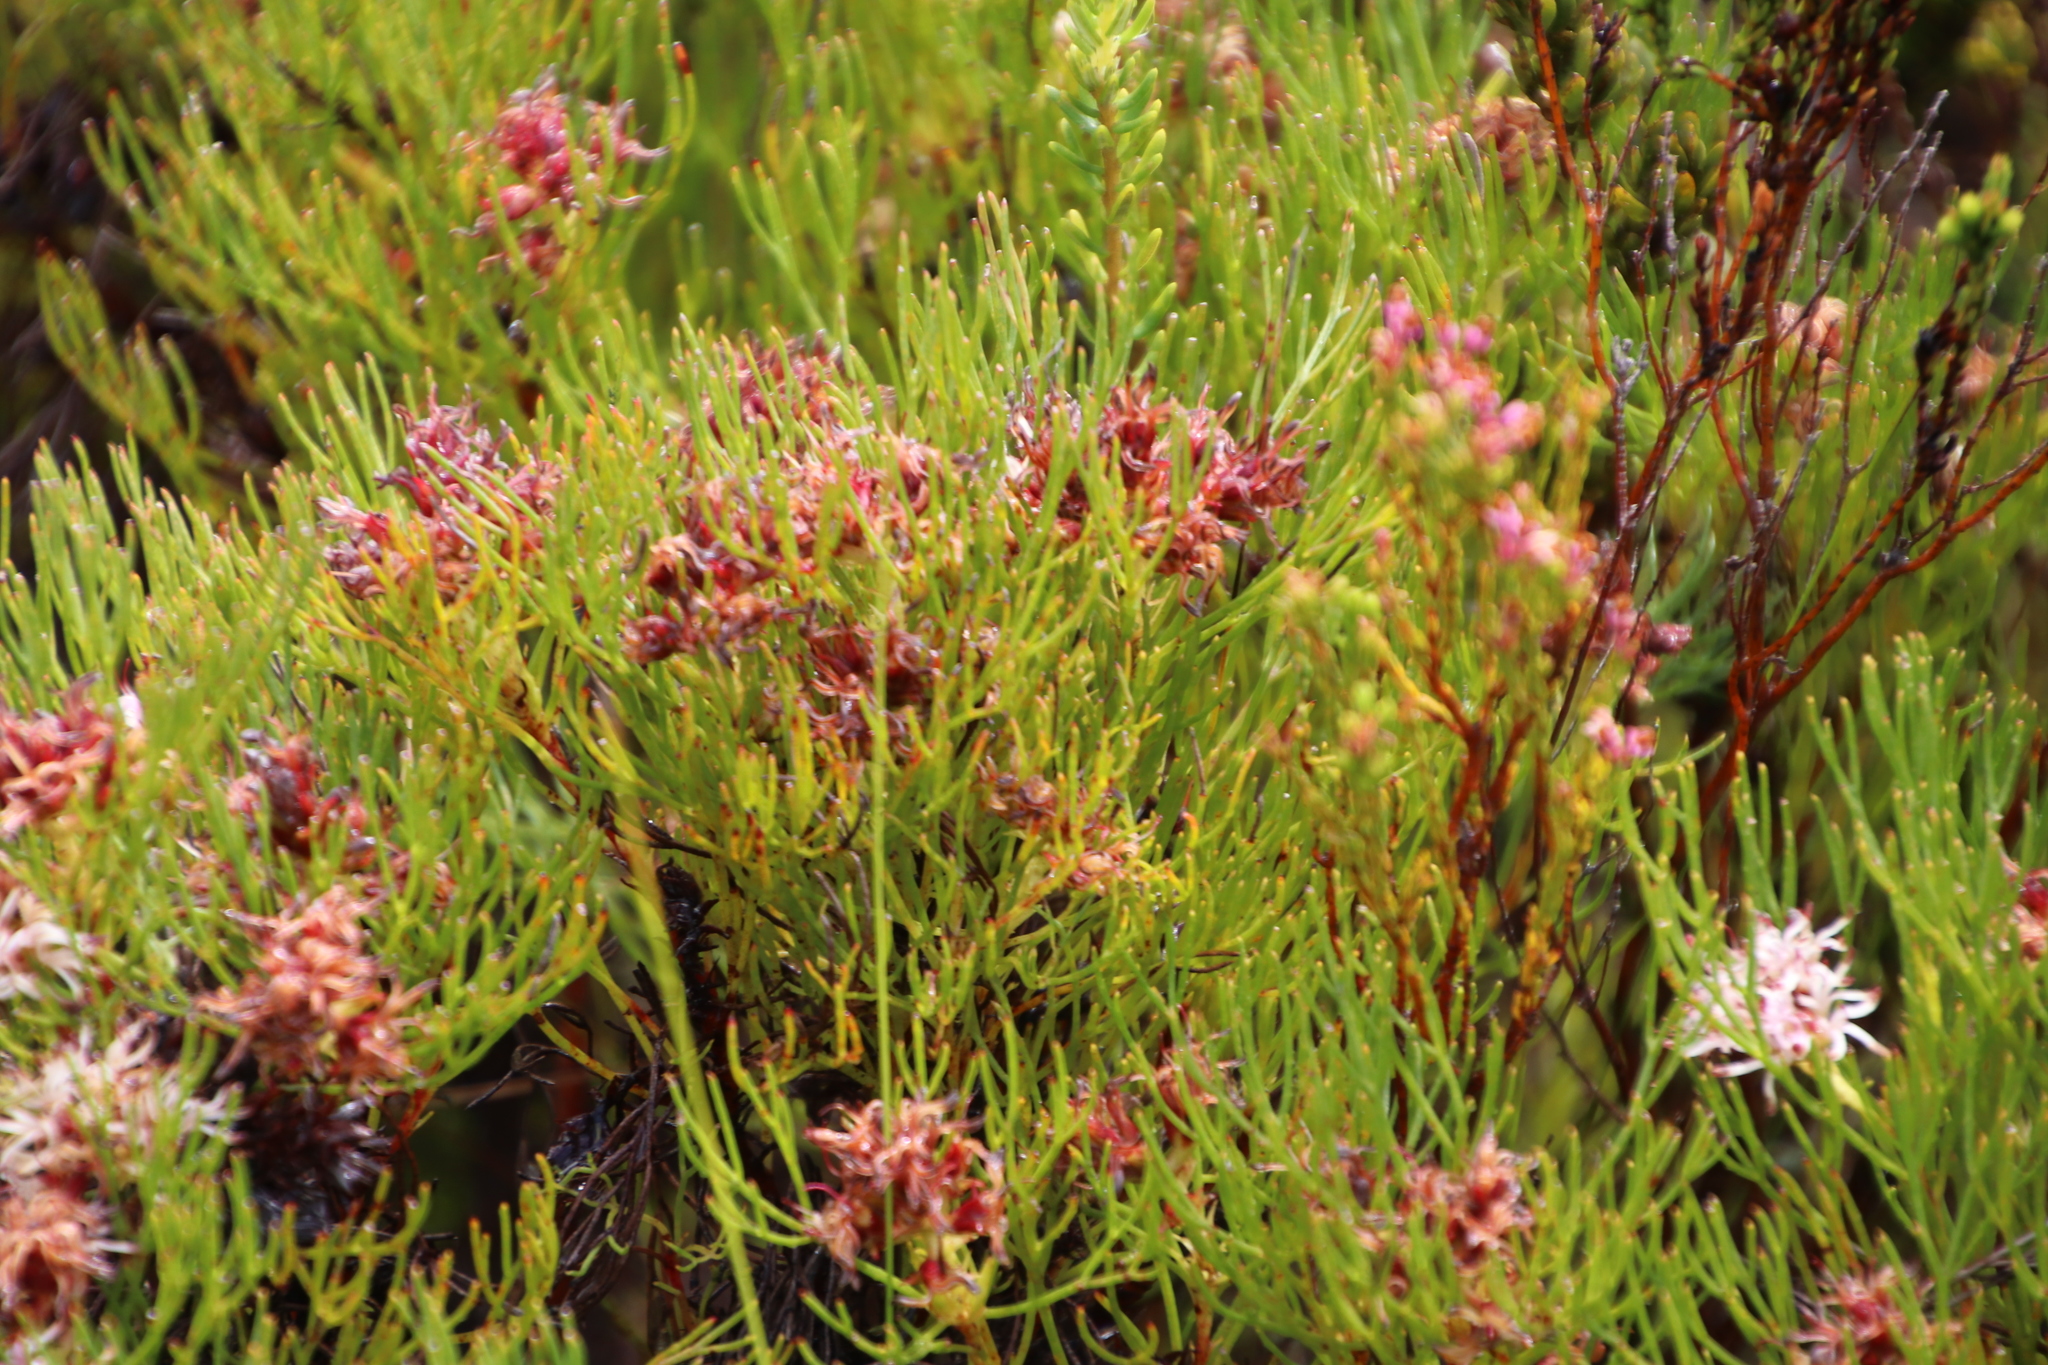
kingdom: Plantae
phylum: Tracheophyta
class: Magnoliopsida
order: Proteales
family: Proteaceae
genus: Serruria
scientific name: Serruria rubricaulis
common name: Red-stem spiderhead
